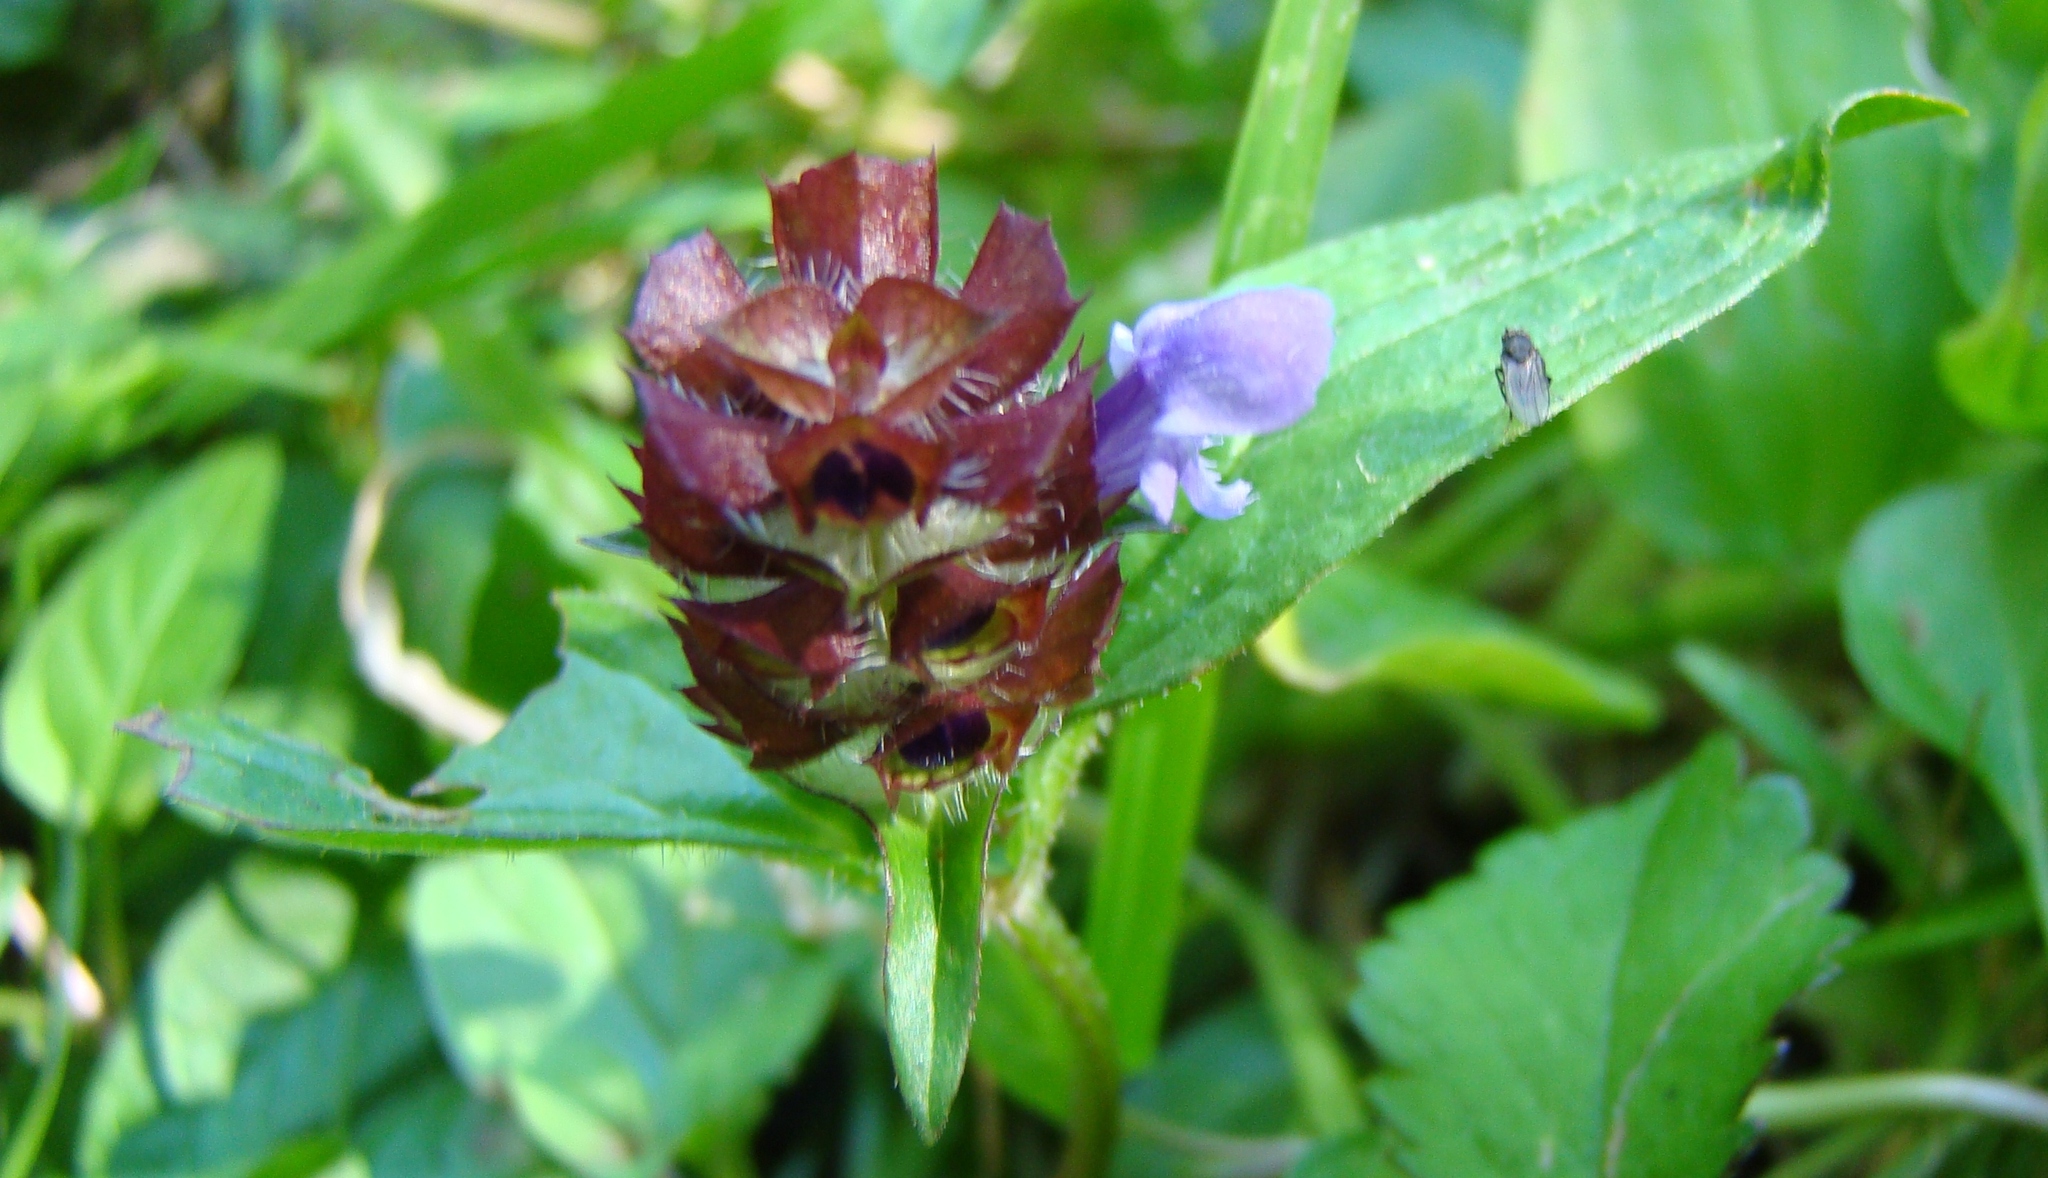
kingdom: Plantae
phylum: Tracheophyta
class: Magnoliopsida
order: Lamiales
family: Lamiaceae
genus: Prunella
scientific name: Prunella vulgaris
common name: Heal-all
